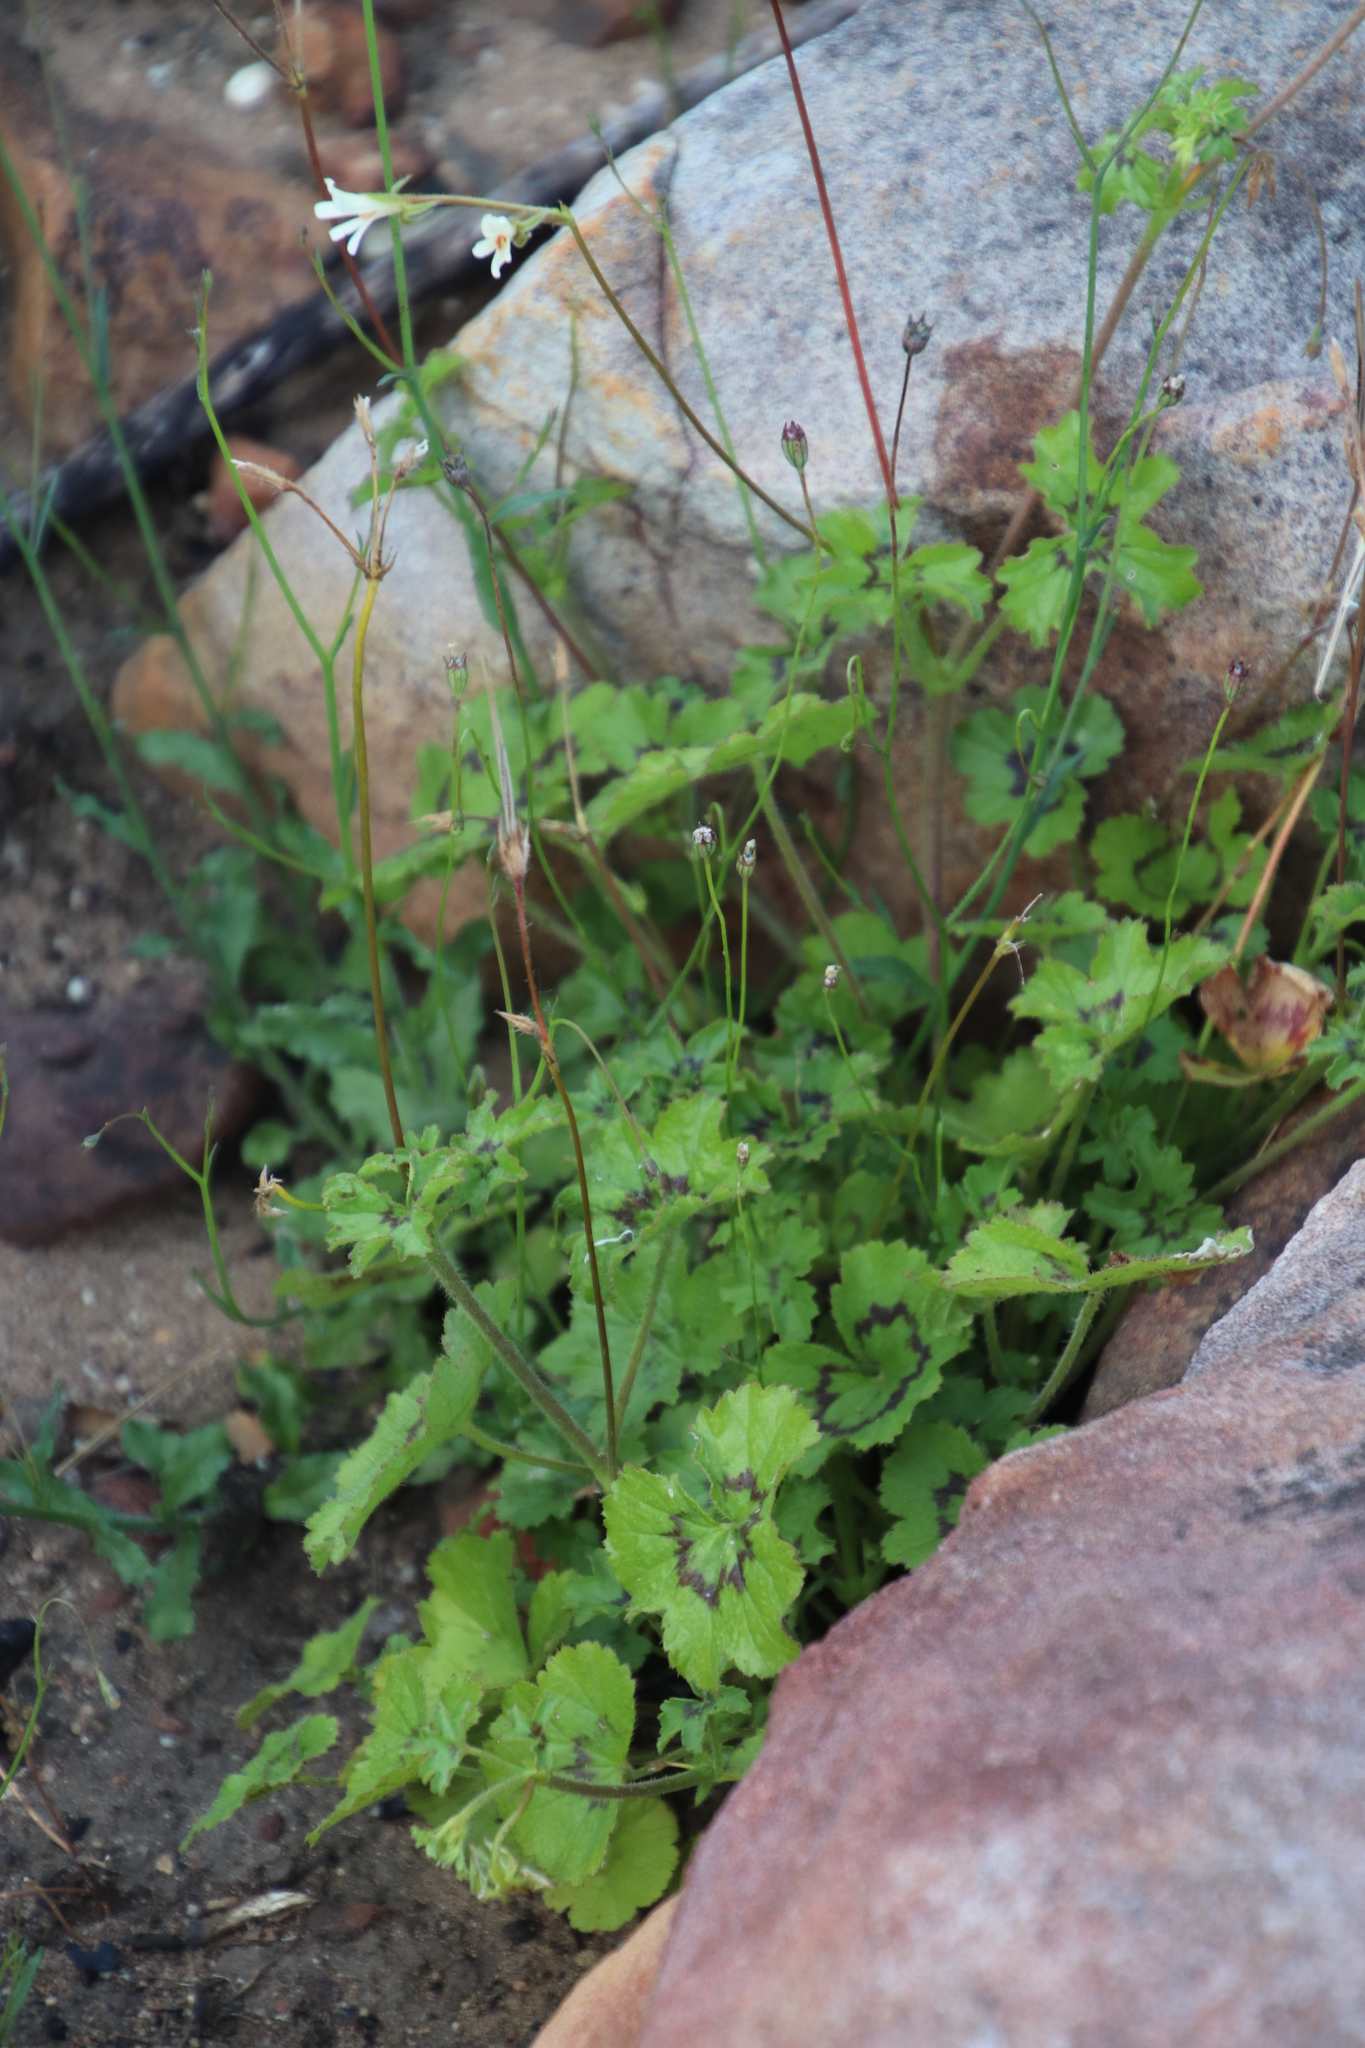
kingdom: Plantae
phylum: Tracheophyta
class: Magnoliopsida
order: Geraniales
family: Geraniaceae
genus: Pelargonium
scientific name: Pelargonium elongatum
